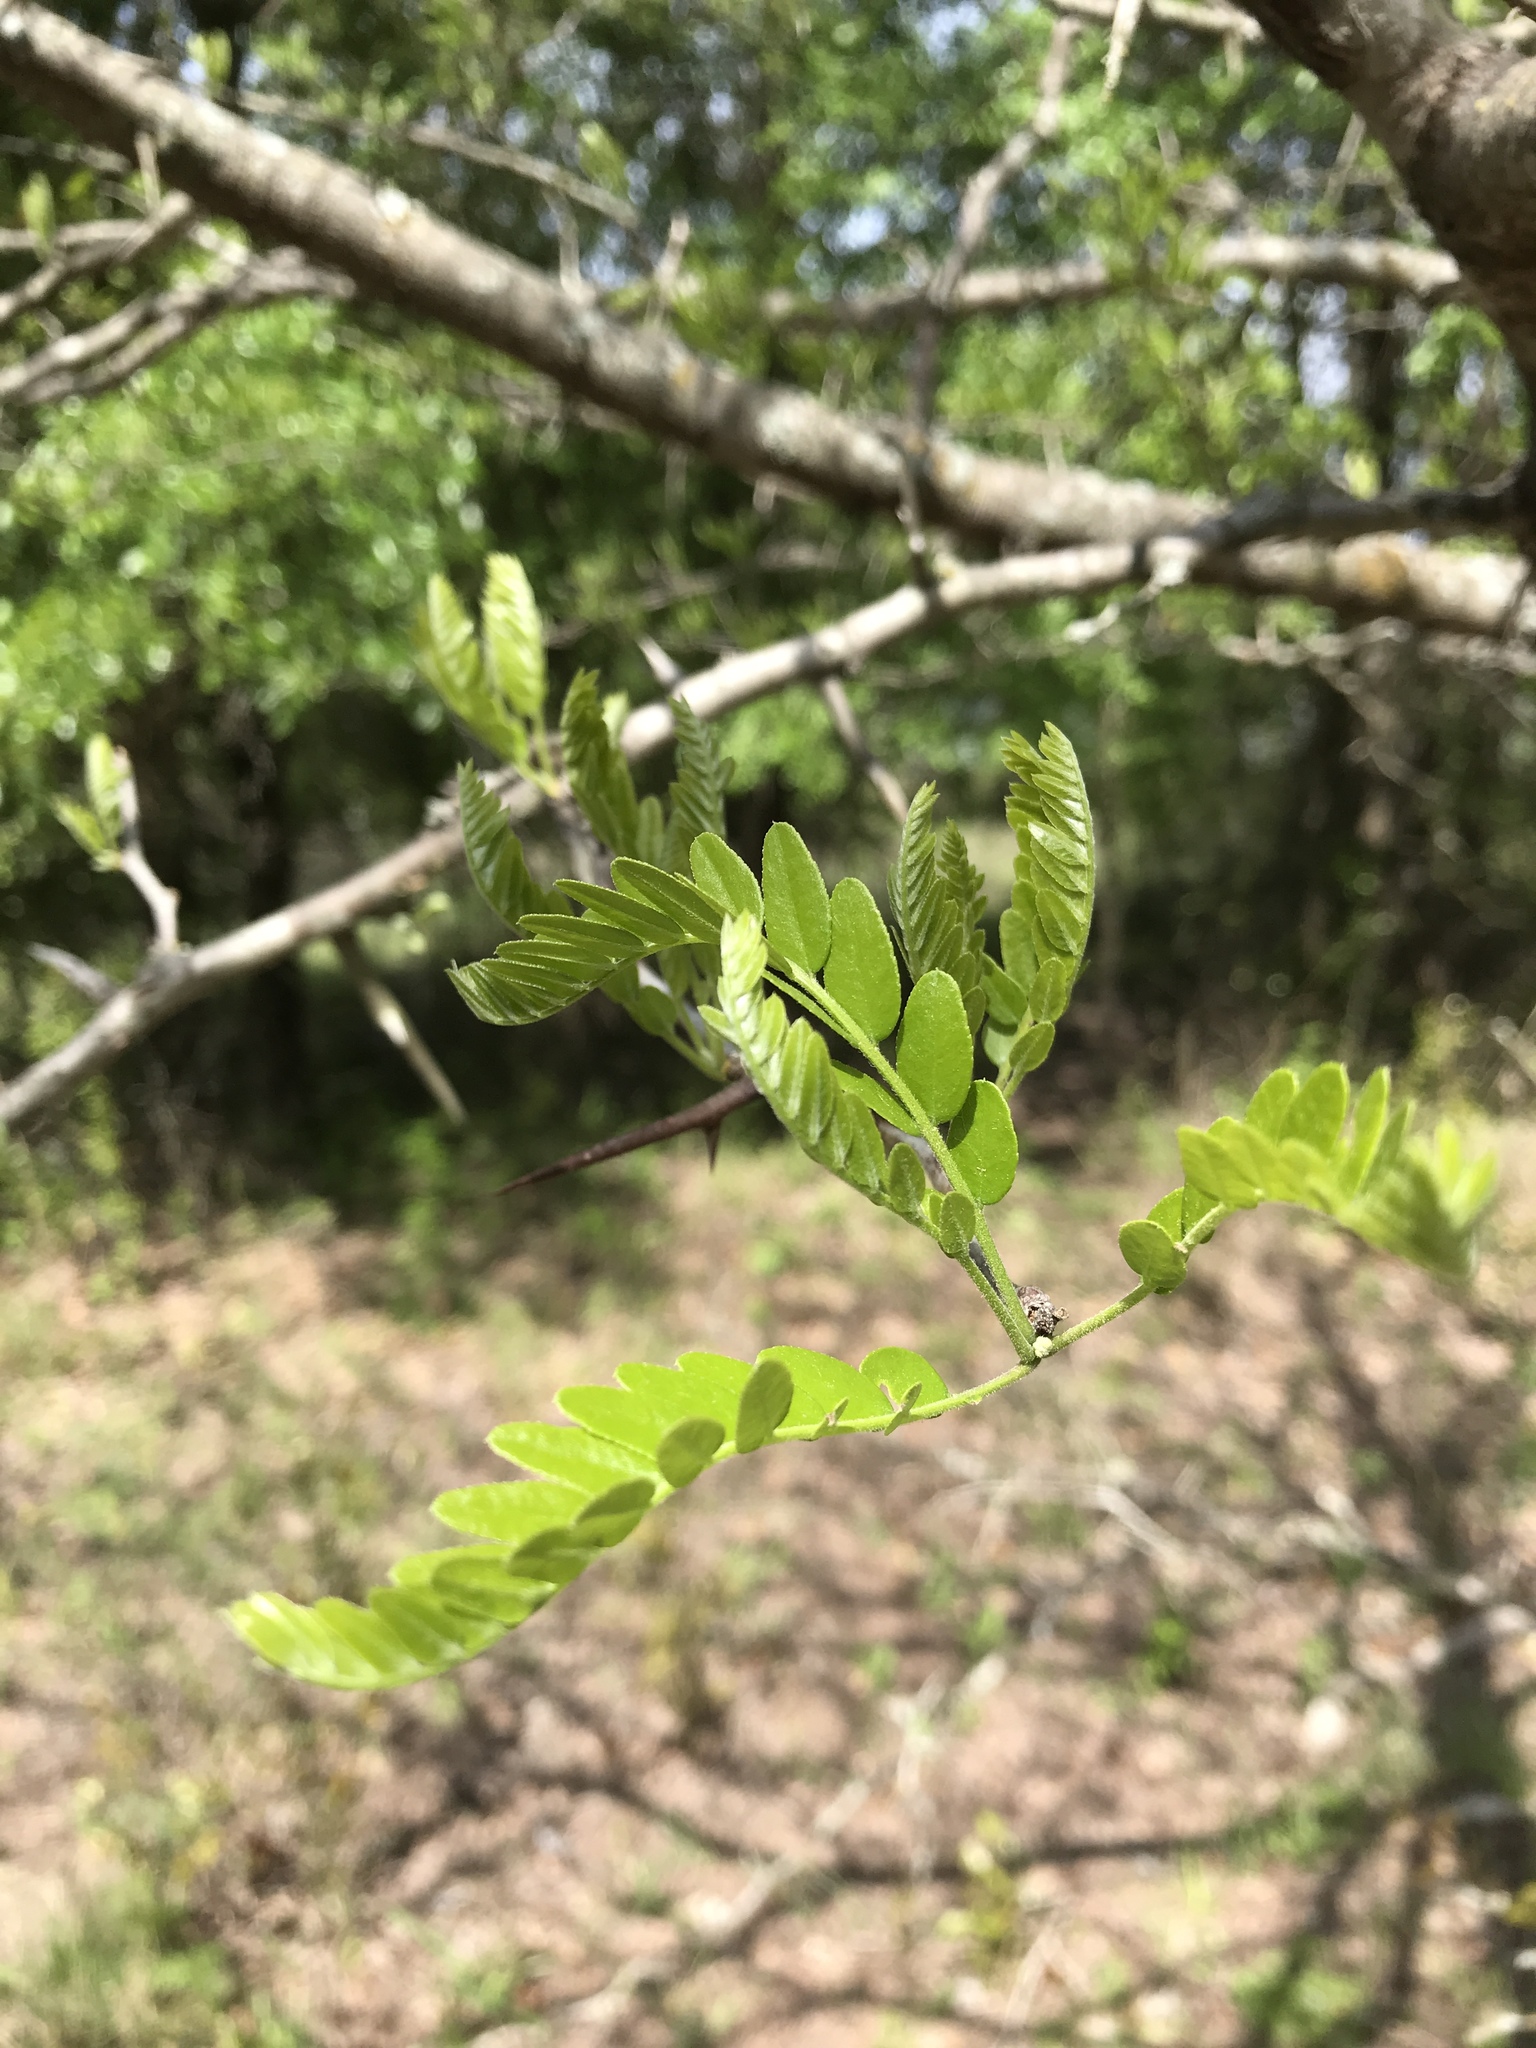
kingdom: Plantae
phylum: Tracheophyta
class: Magnoliopsida
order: Fabales
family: Fabaceae
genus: Gleditsia
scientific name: Gleditsia triacanthos
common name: Common honeylocust
